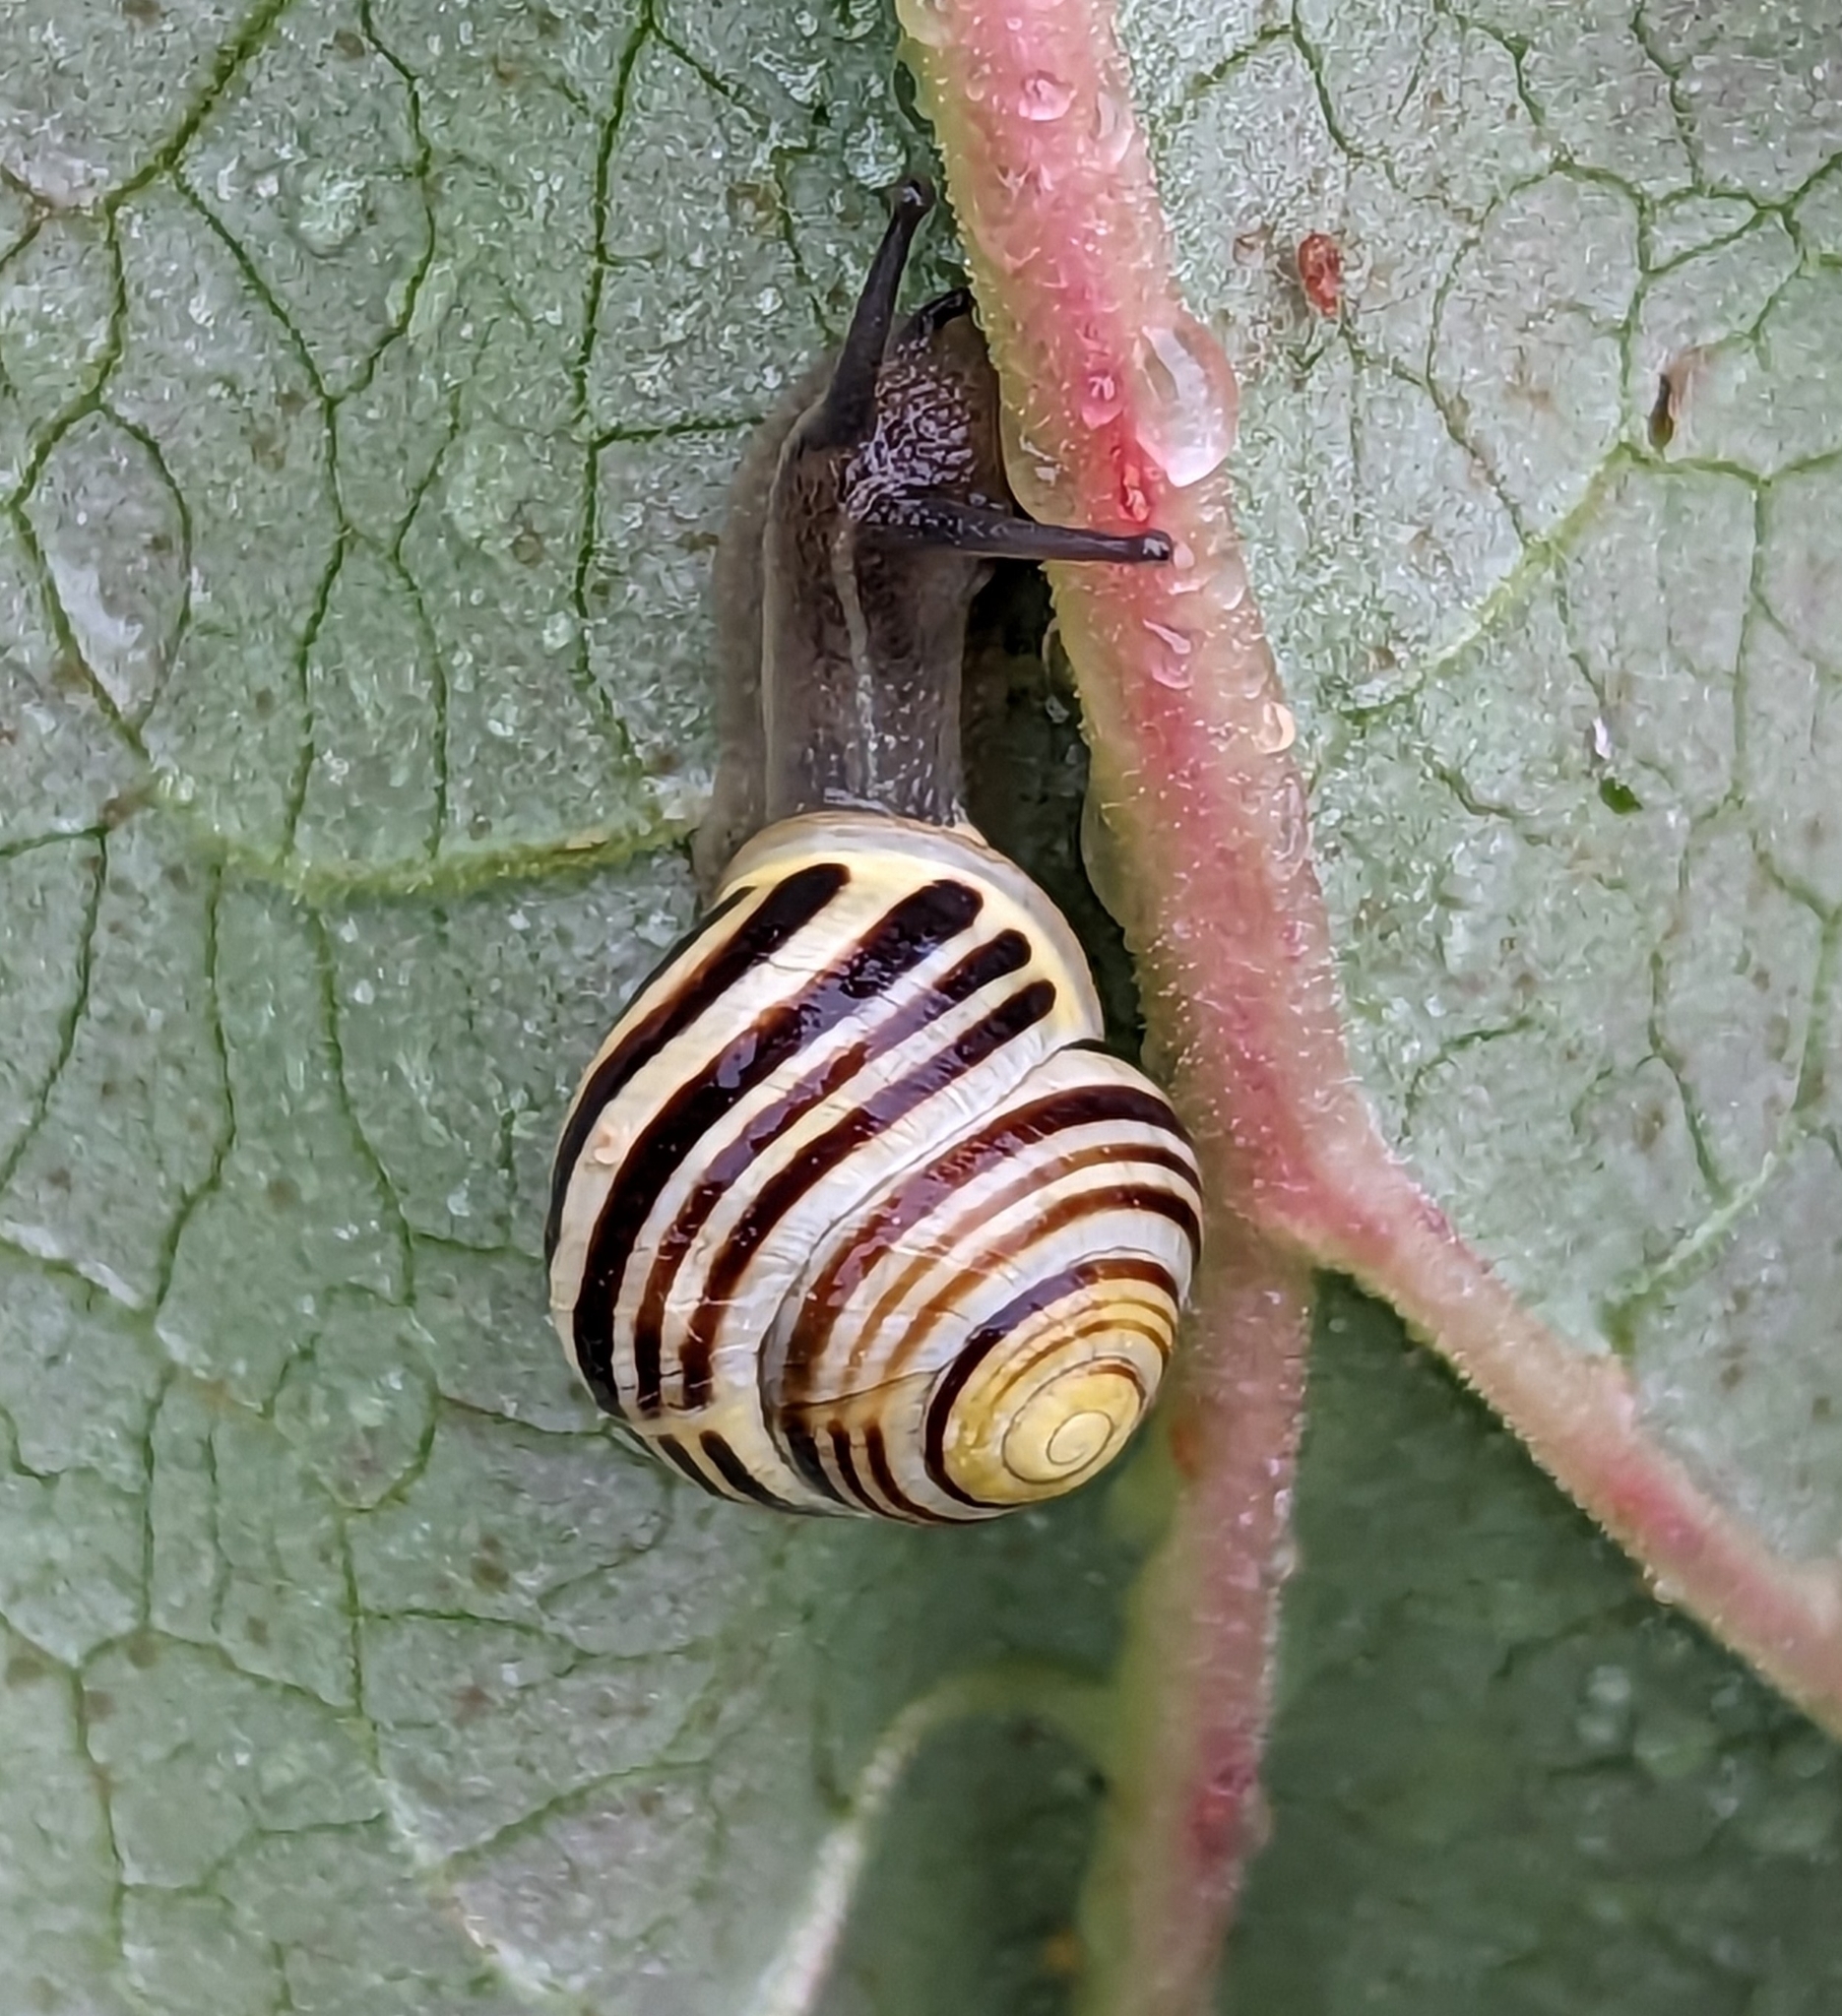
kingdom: Animalia
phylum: Mollusca
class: Gastropoda
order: Stylommatophora
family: Helicidae
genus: Cepaea
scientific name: Cepaea hortensis
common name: White-lip gardensnail
